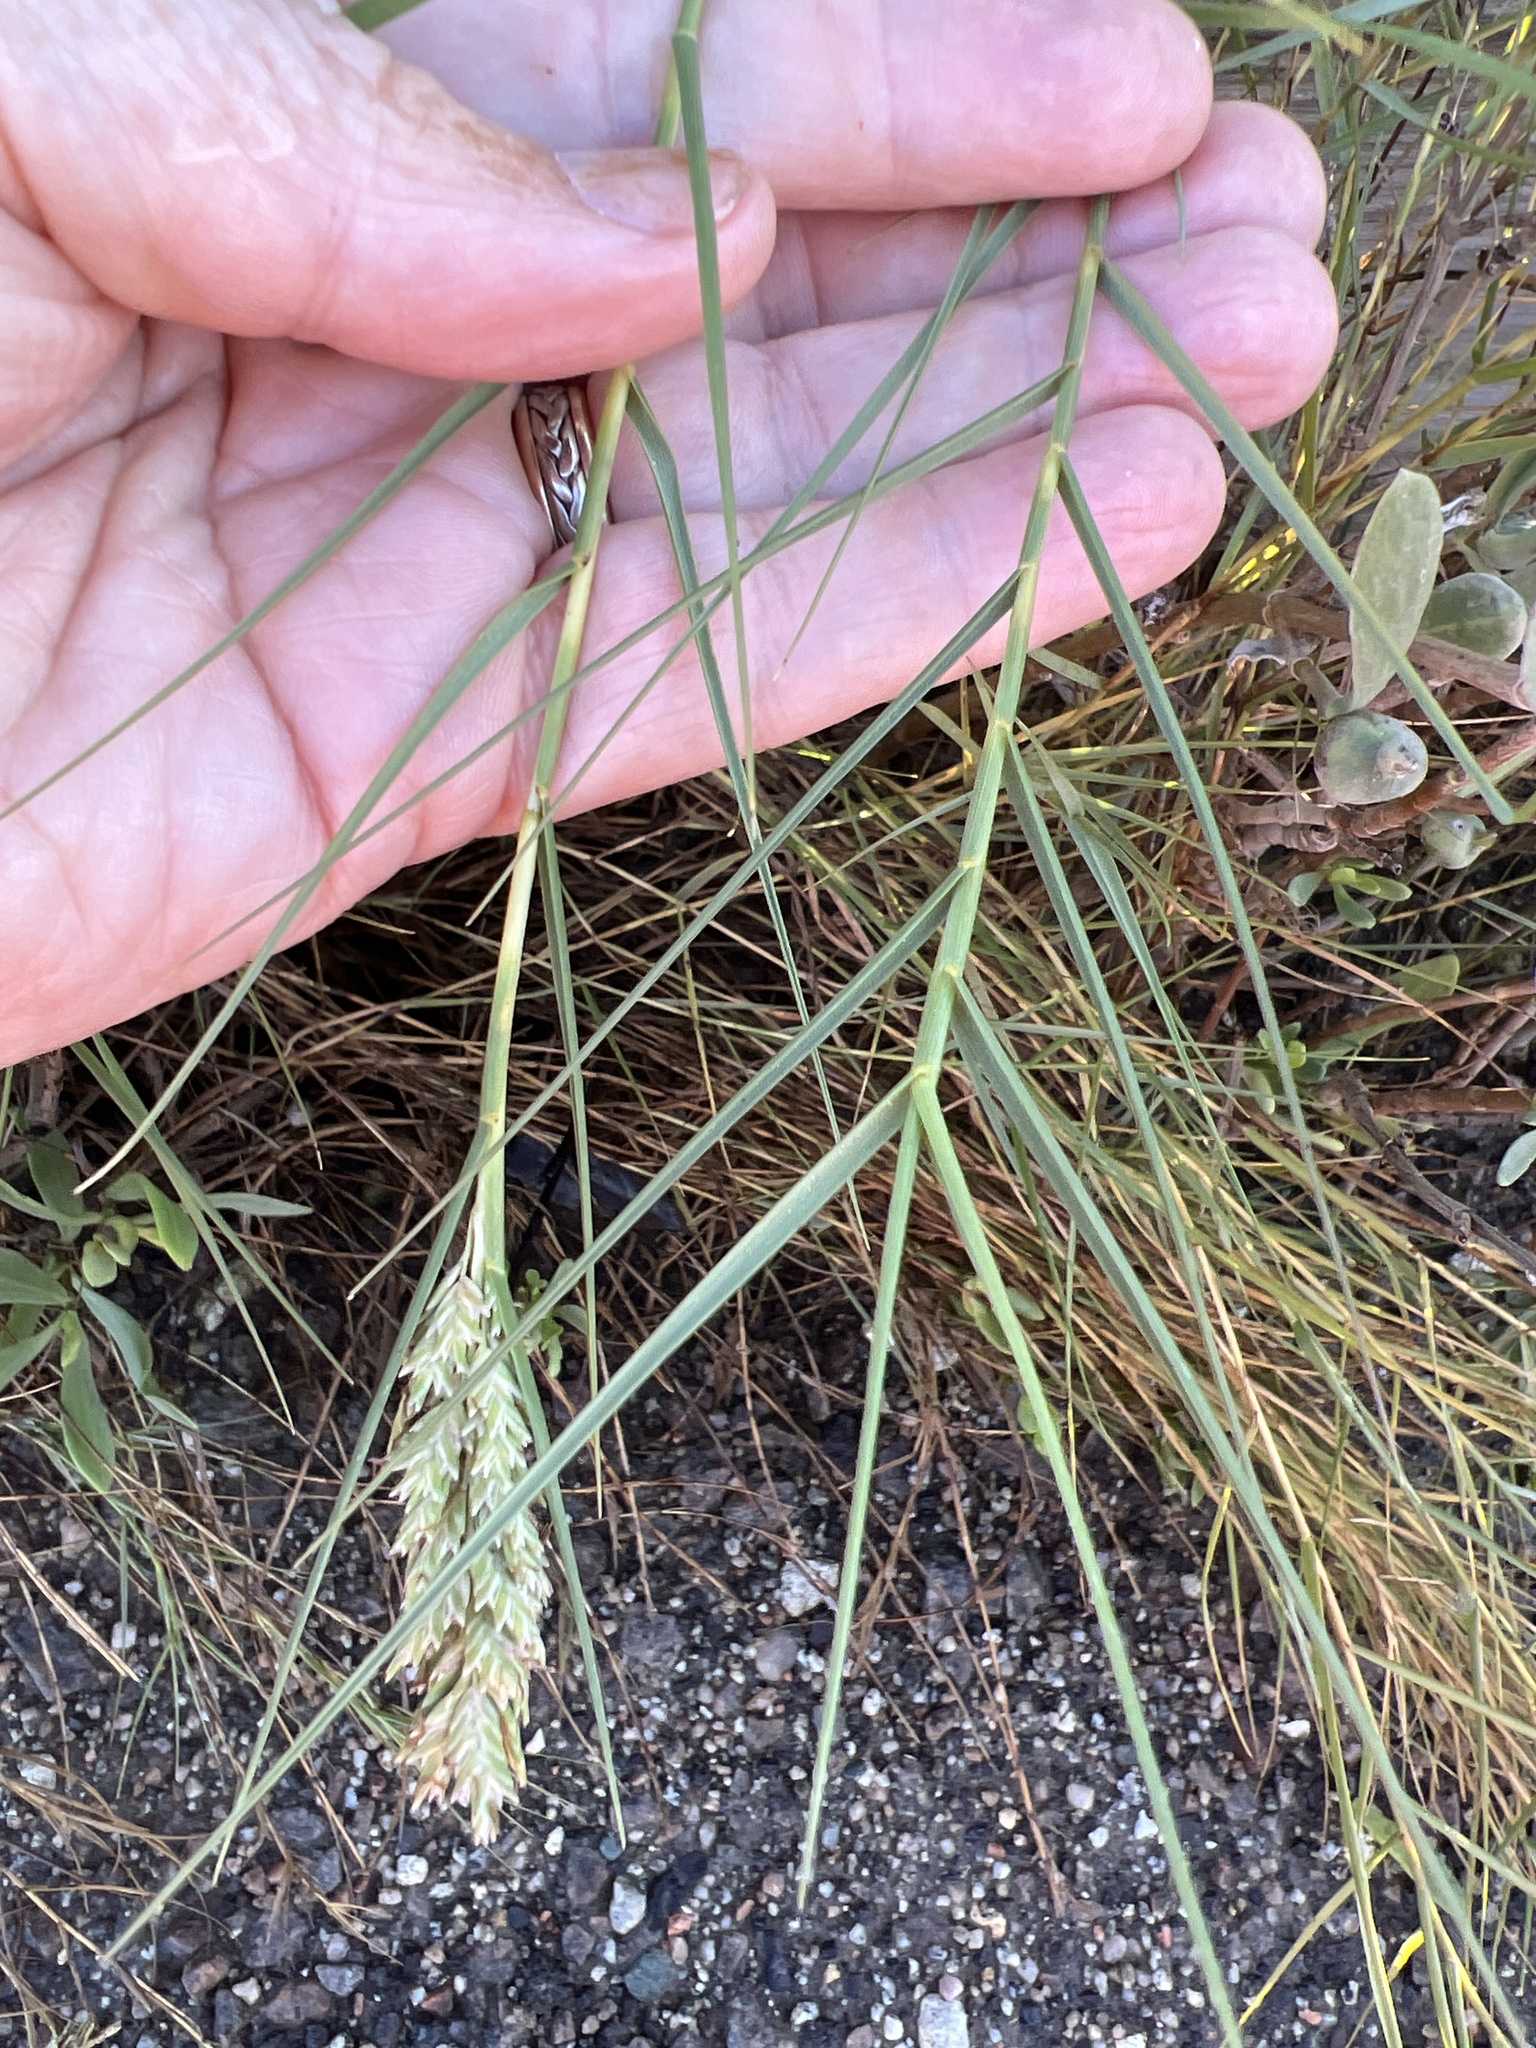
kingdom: Plantae
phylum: Tracheophyta
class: Liliopsida
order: Poales
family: Poaceae
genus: Distichlis
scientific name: Distichlis spicata
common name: Saltgrass
